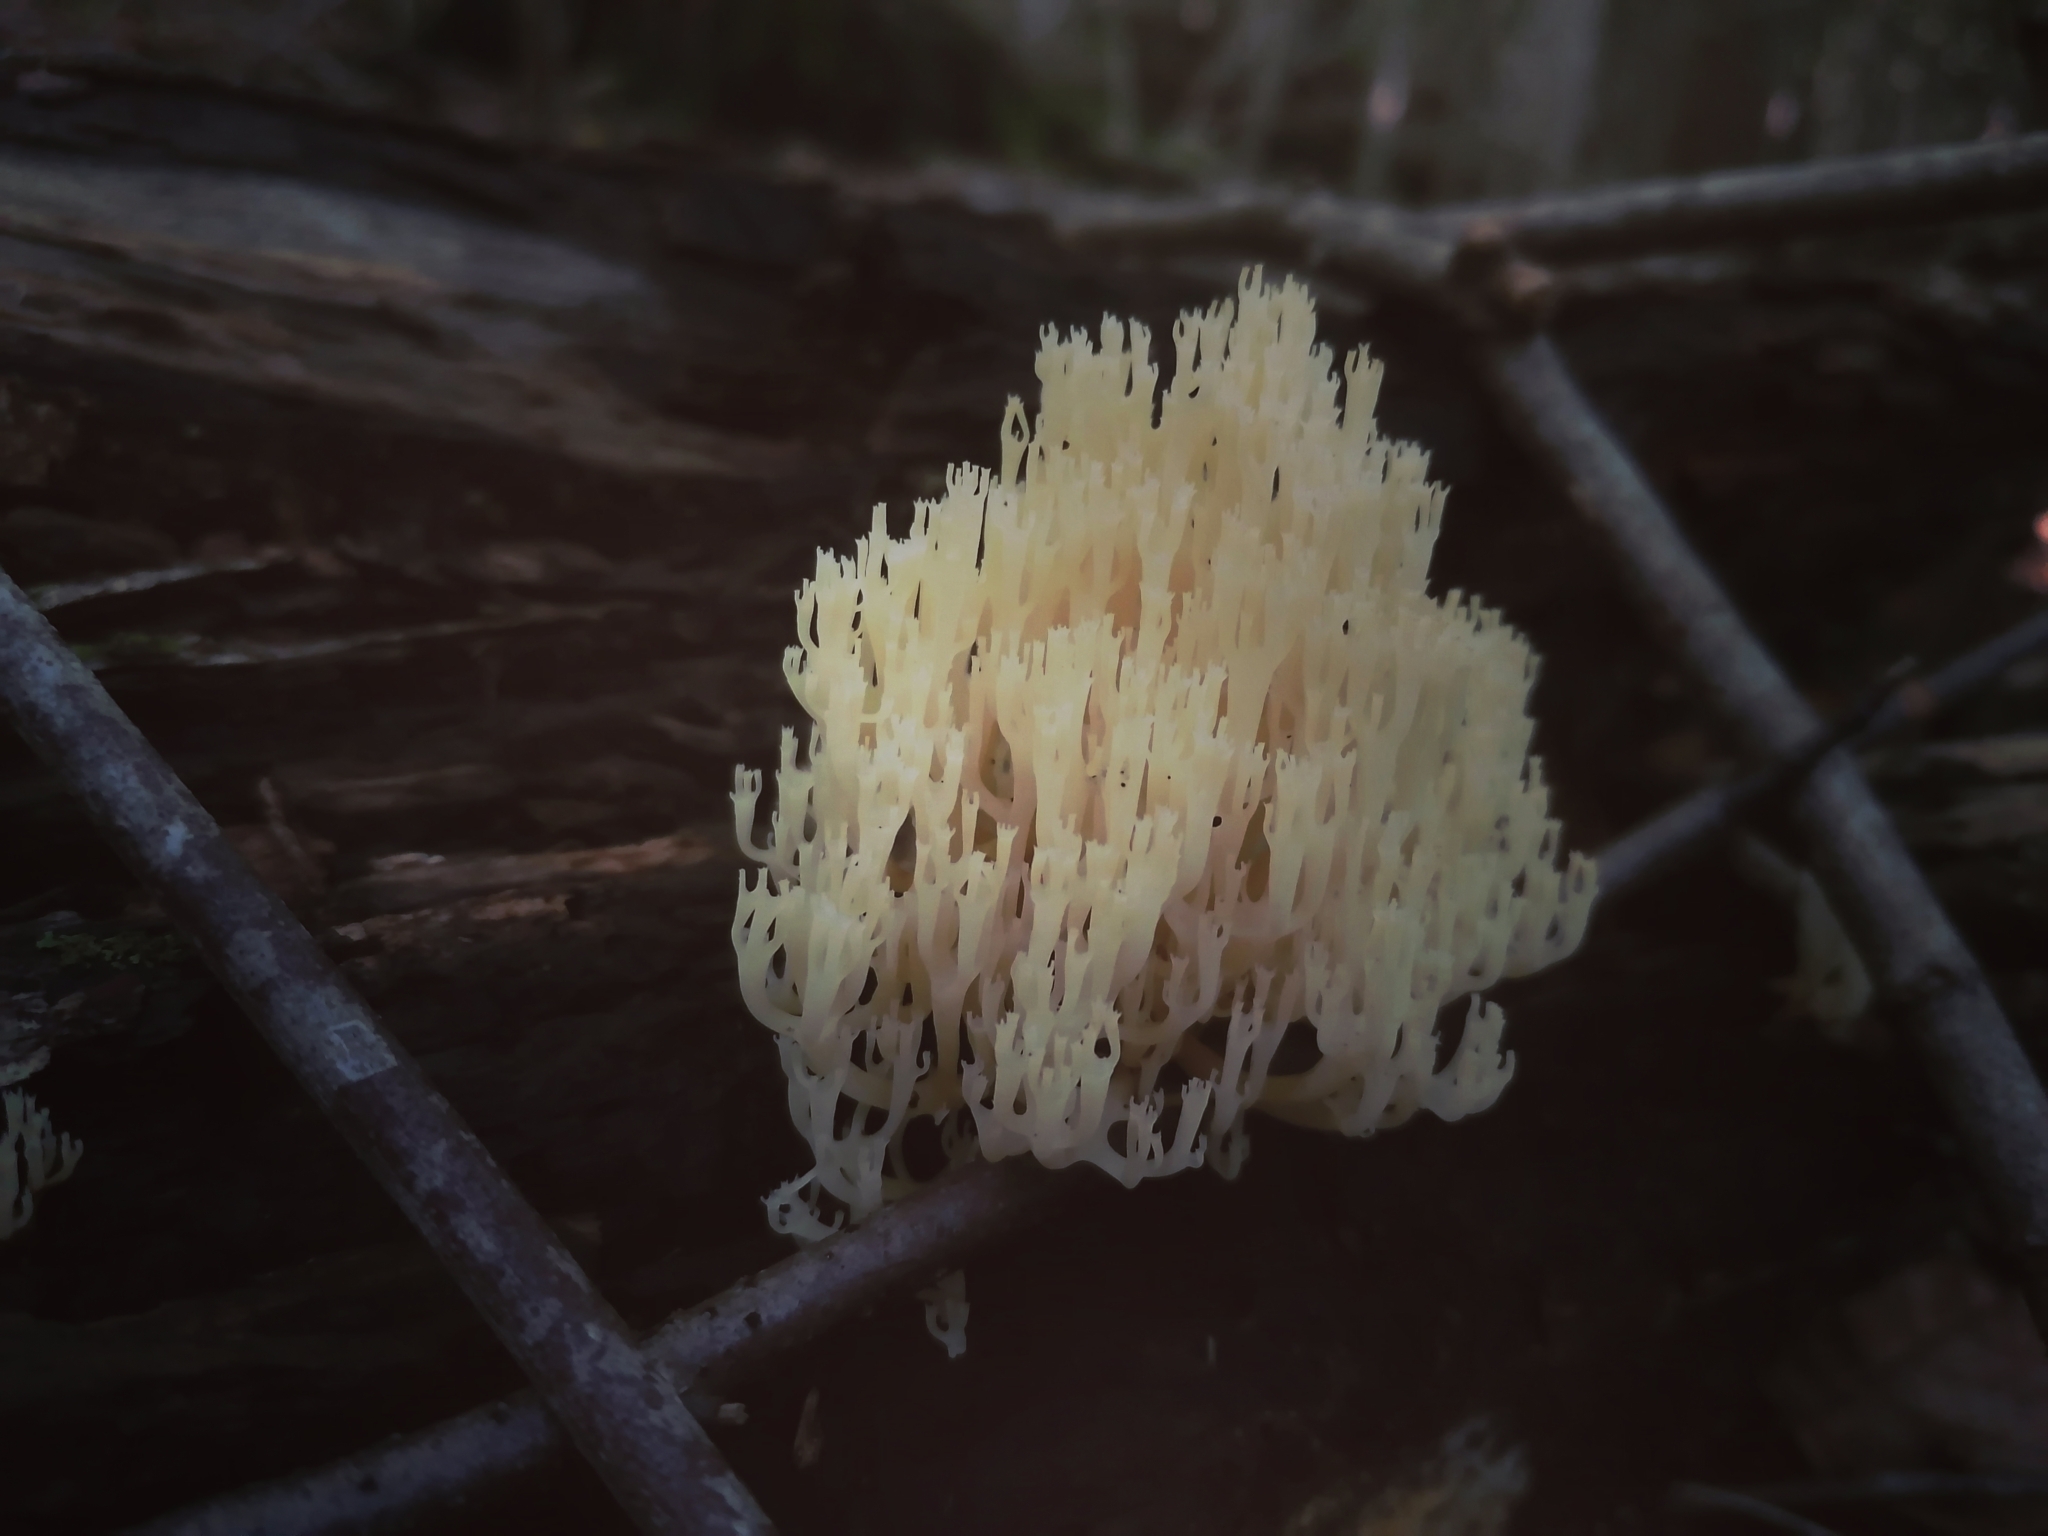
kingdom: Fungi
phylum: Basidiomycota
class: Agaricomycetes
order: Russulales
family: Auriscalpiaceae
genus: Artomyces
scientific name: Artomyces pyxidatus
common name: Crown-tipped coral fungus
